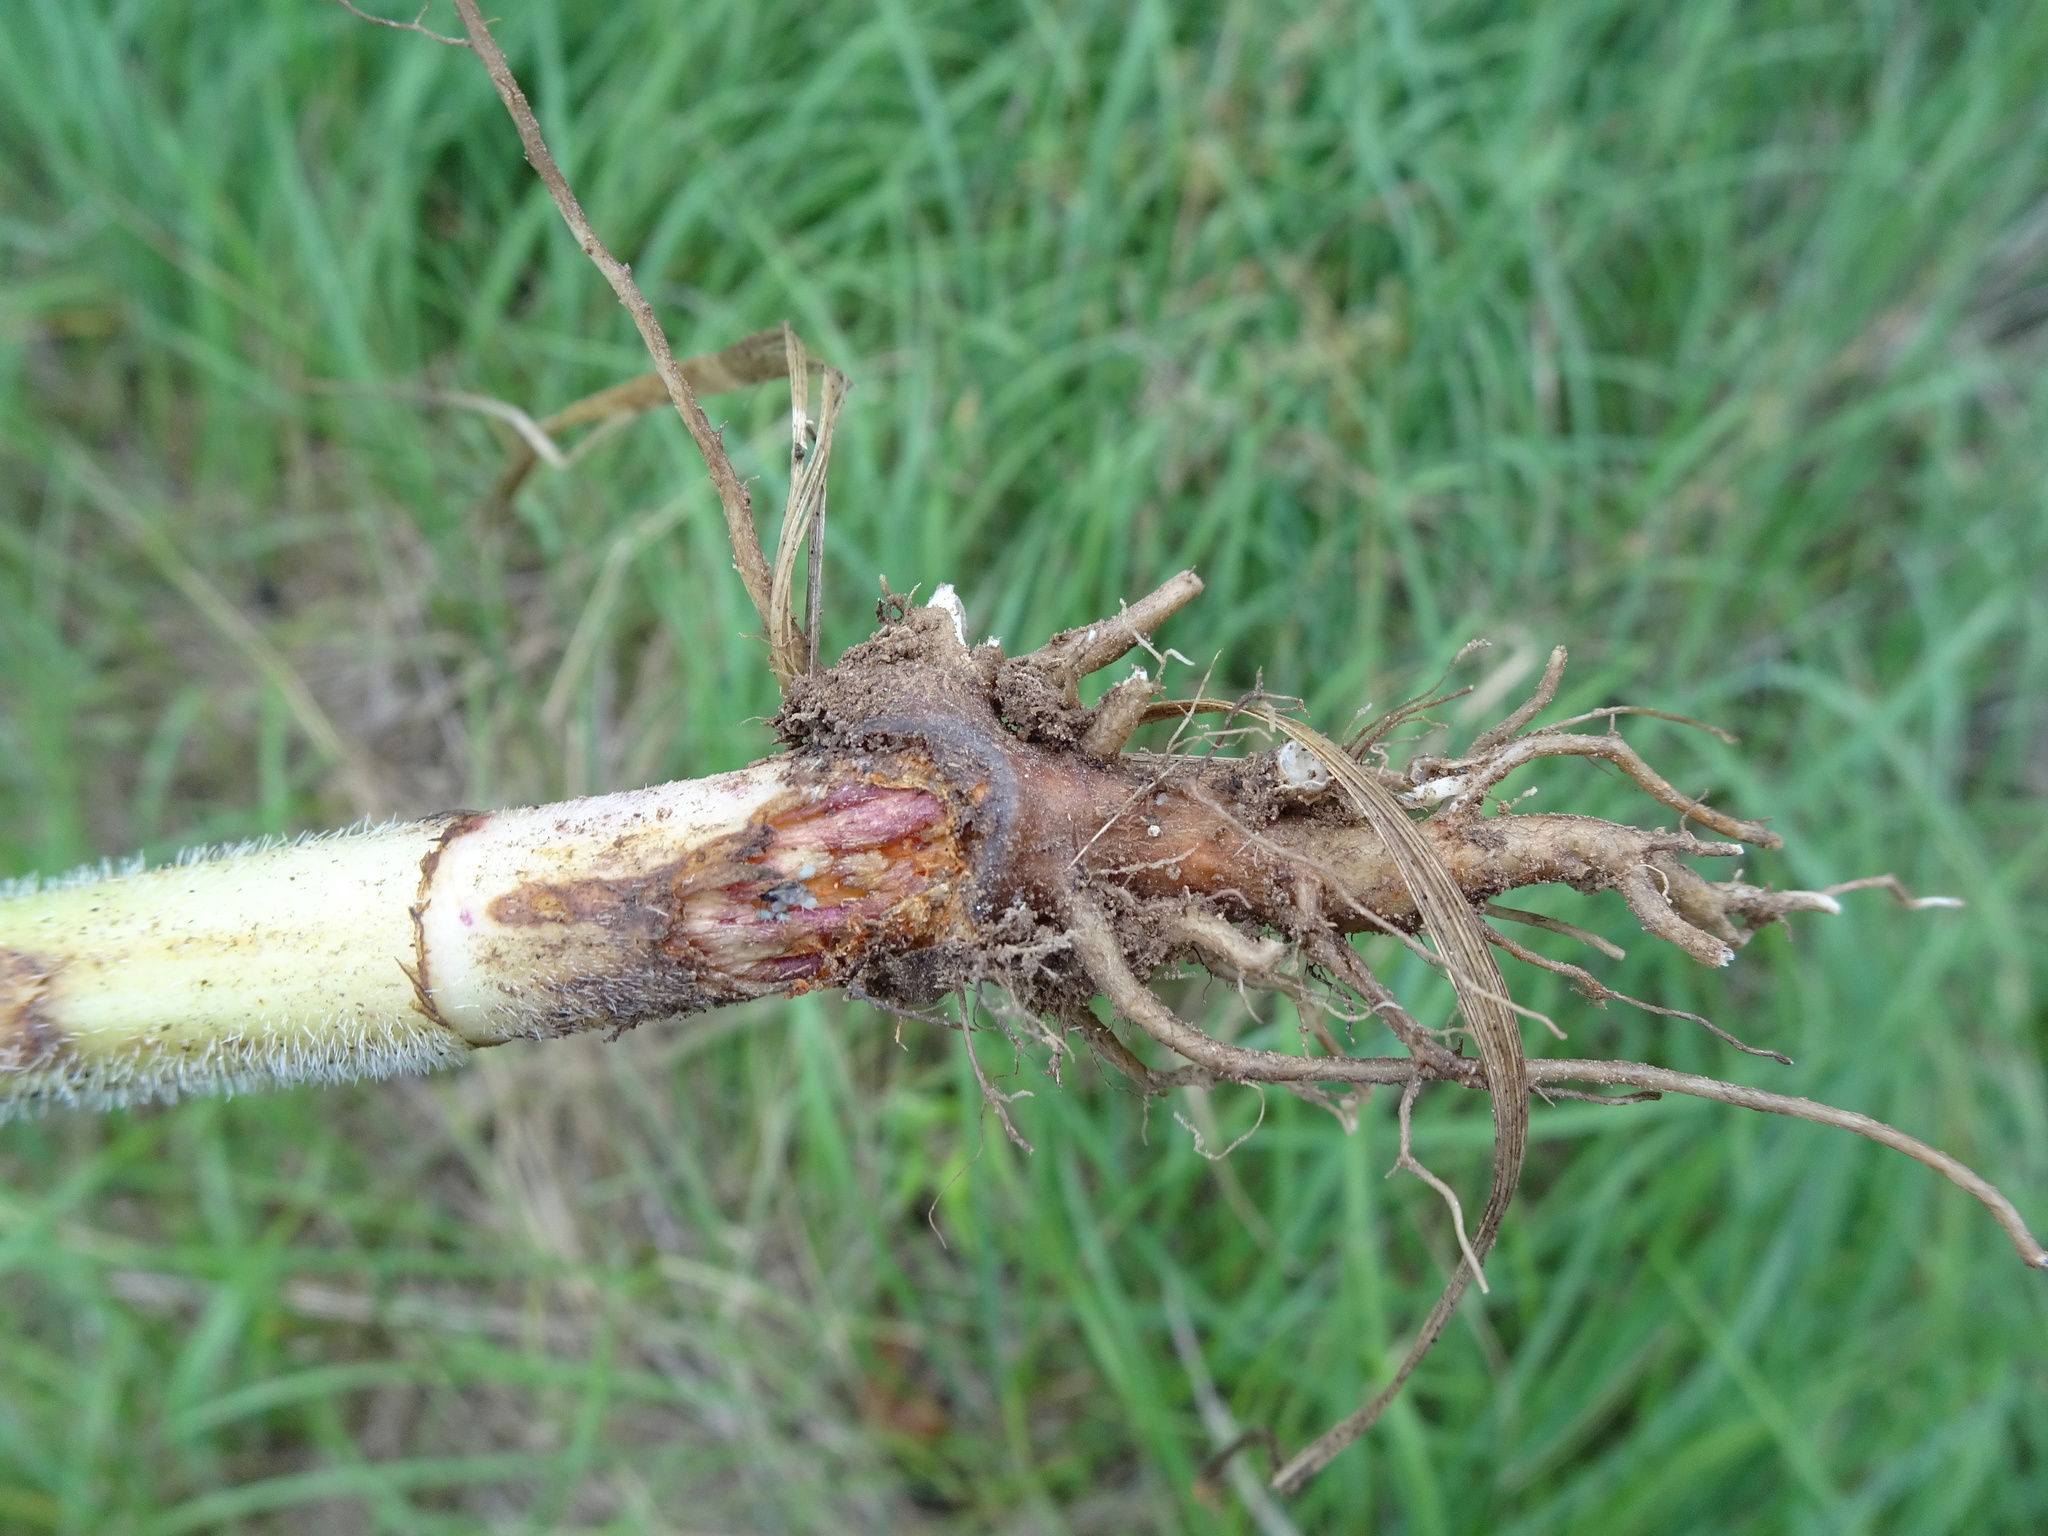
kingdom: Plantae
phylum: Tracheophyta
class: Magnoliopsida
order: Apiales
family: Apiaceae
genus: Chaerophyllum
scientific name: Chaerophyllum bulbosum
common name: Bulbous chervil
